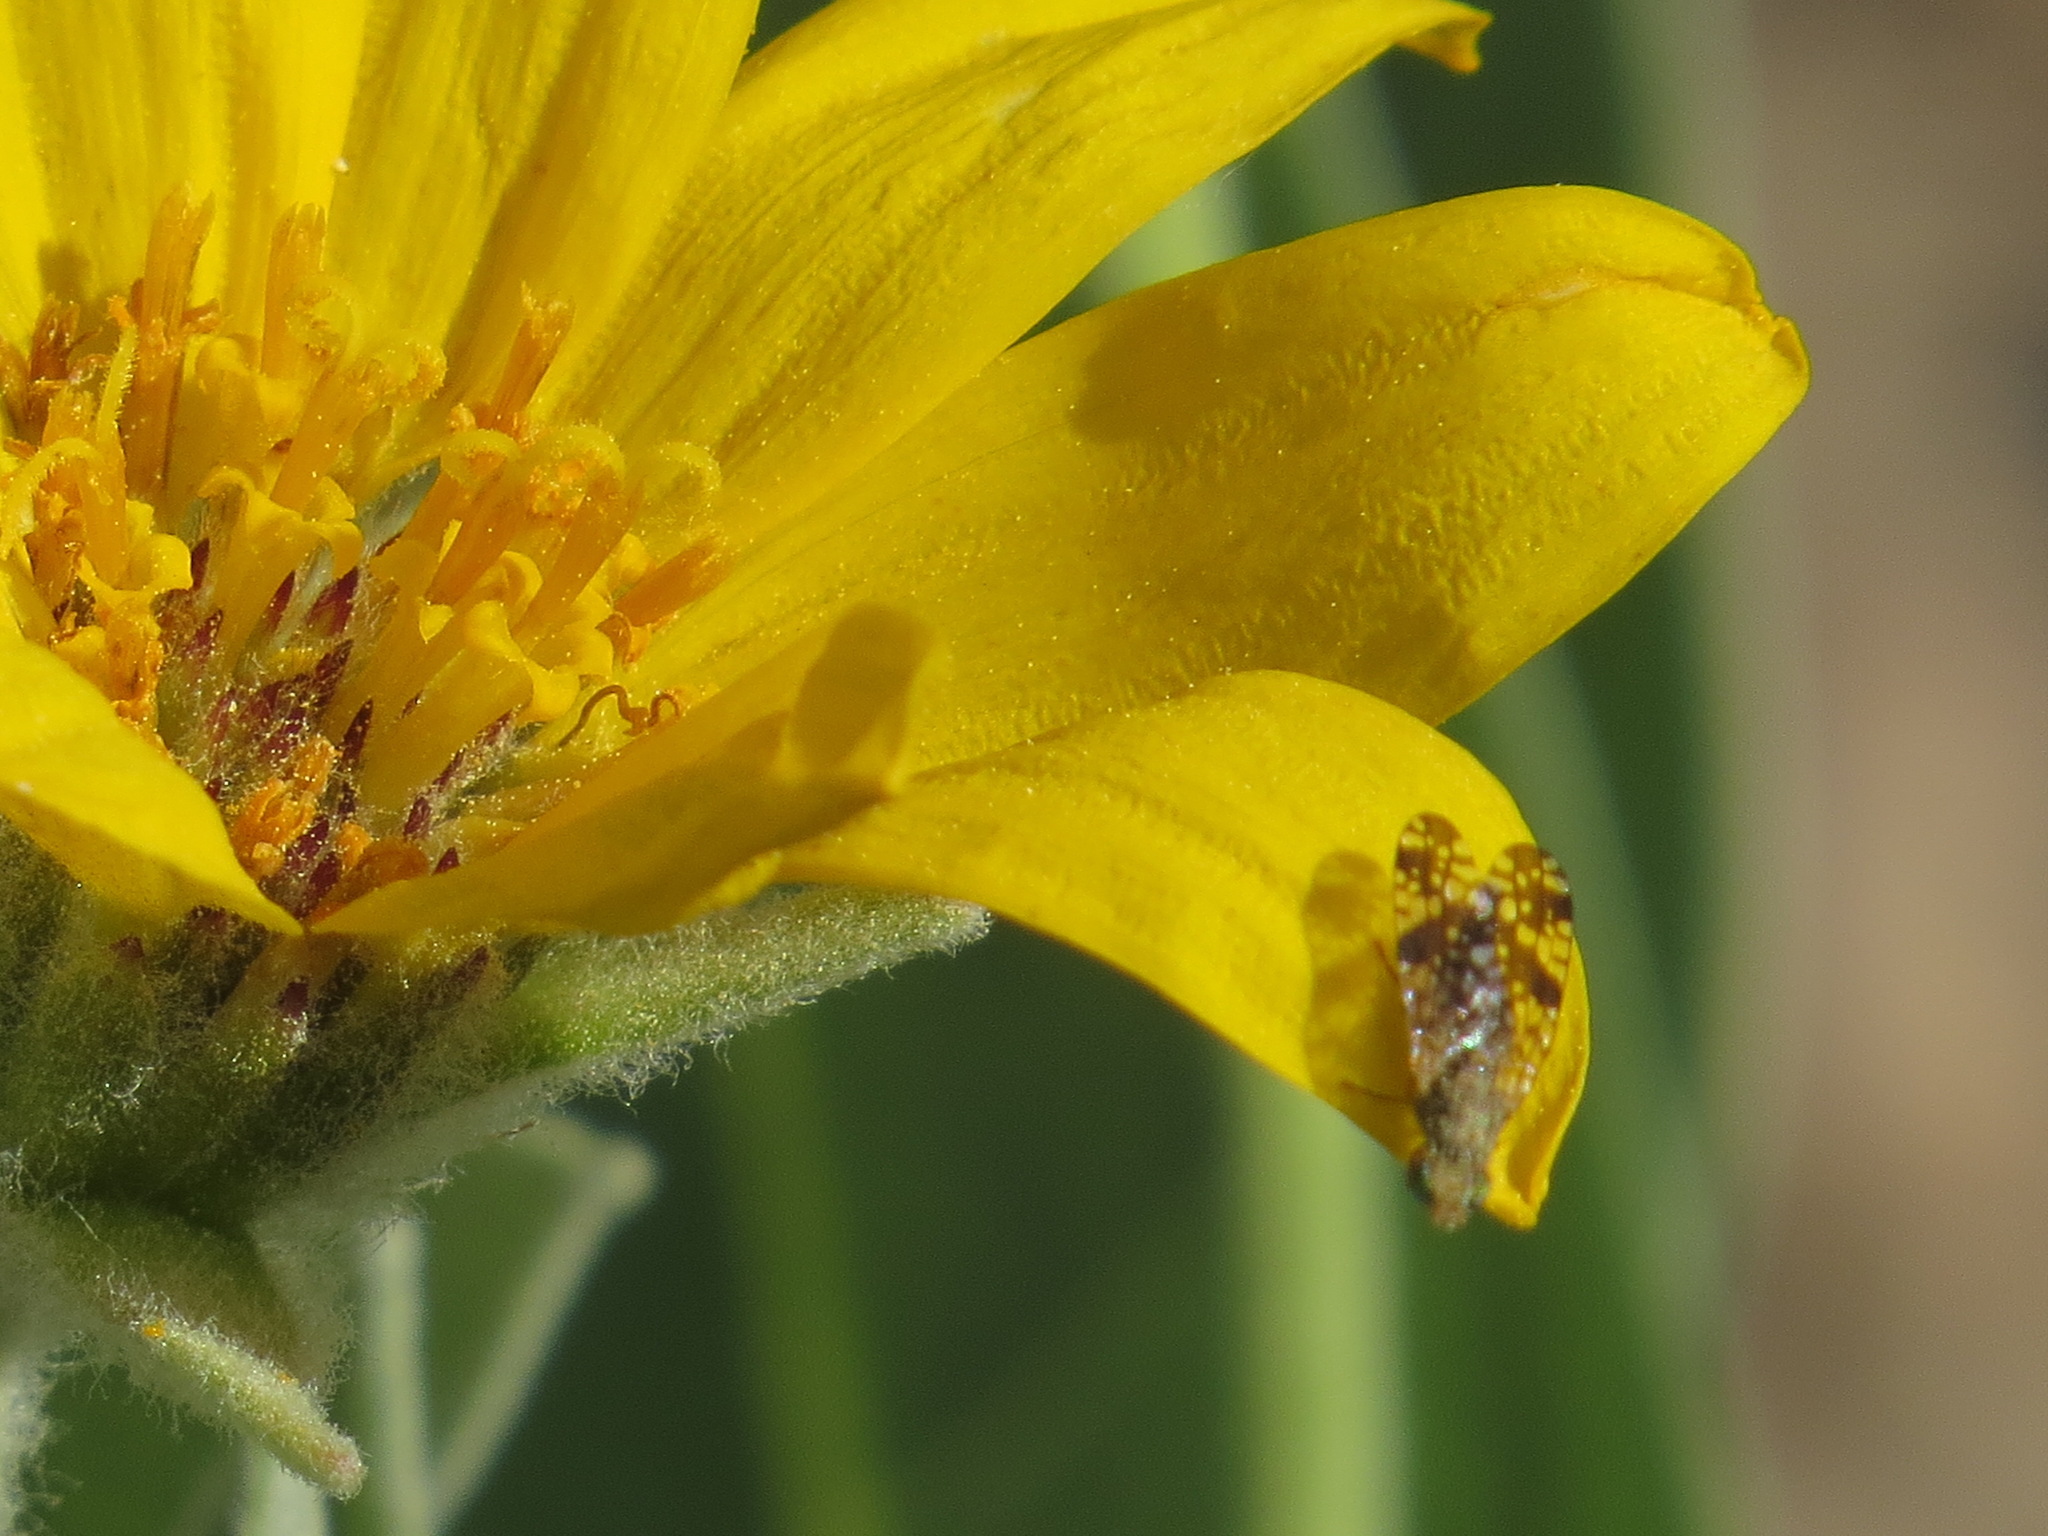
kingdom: Animalia
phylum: Arthropoda
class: Insecta
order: Diptera
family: Tephritidae
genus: Neotephritis
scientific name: Neotephritis finalis
